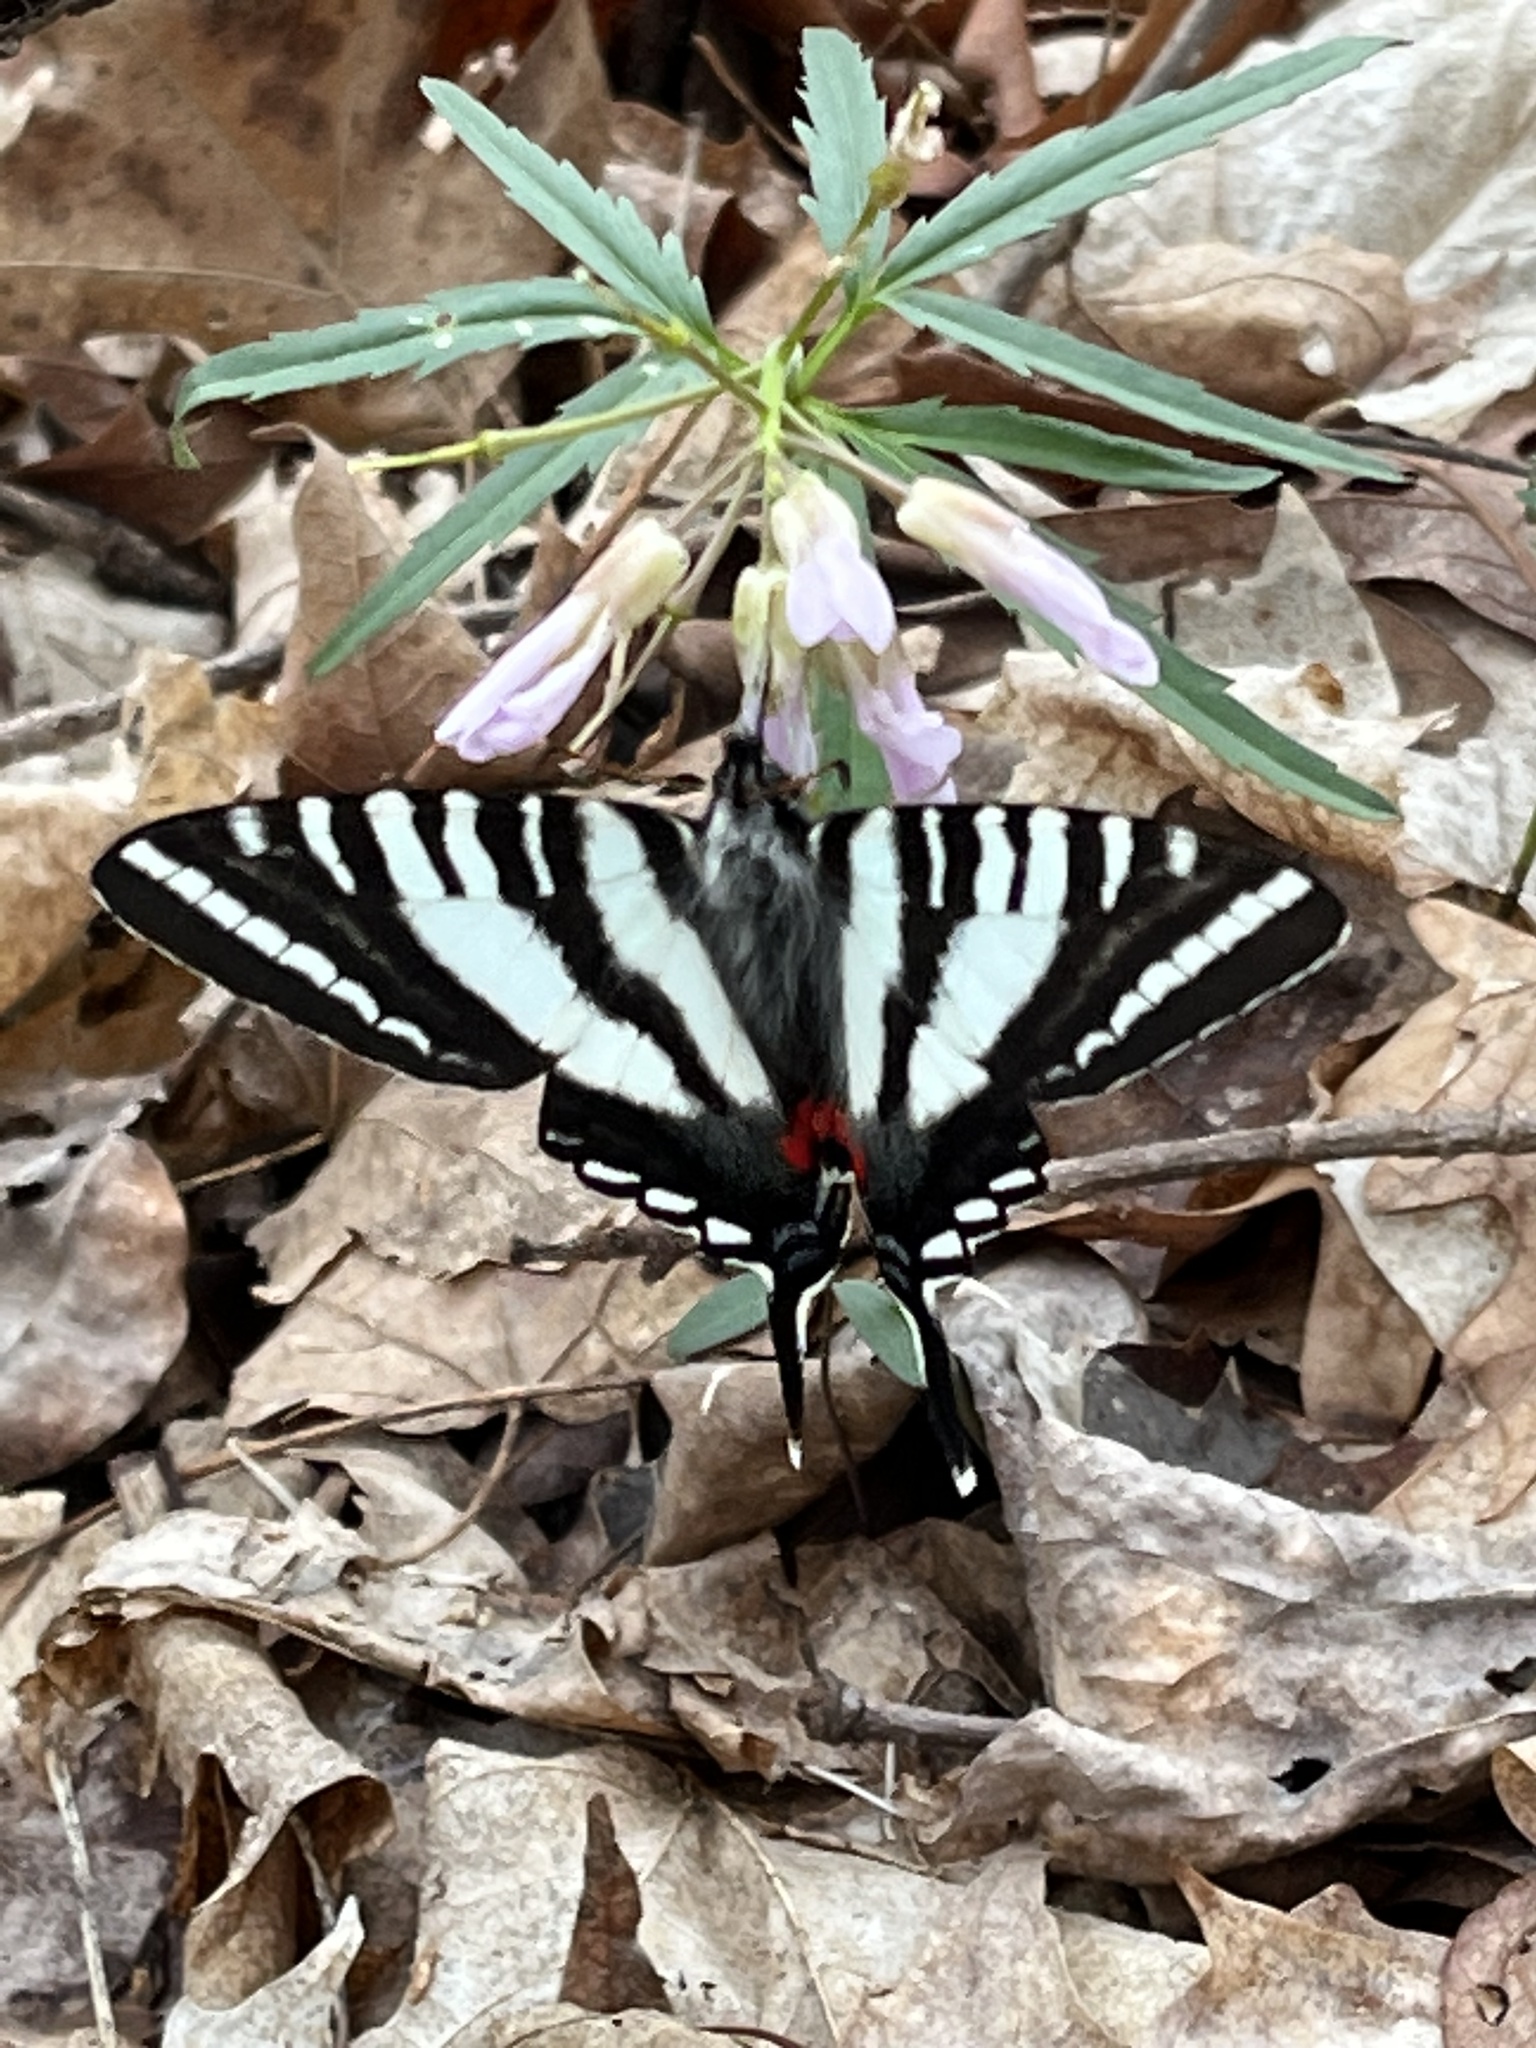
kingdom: Animalia
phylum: Arthropoda
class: Insecta
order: Lepidoptera
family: Papilionidae
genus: Protographium
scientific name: Protographium marcellus
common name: Zebra swallowtail
